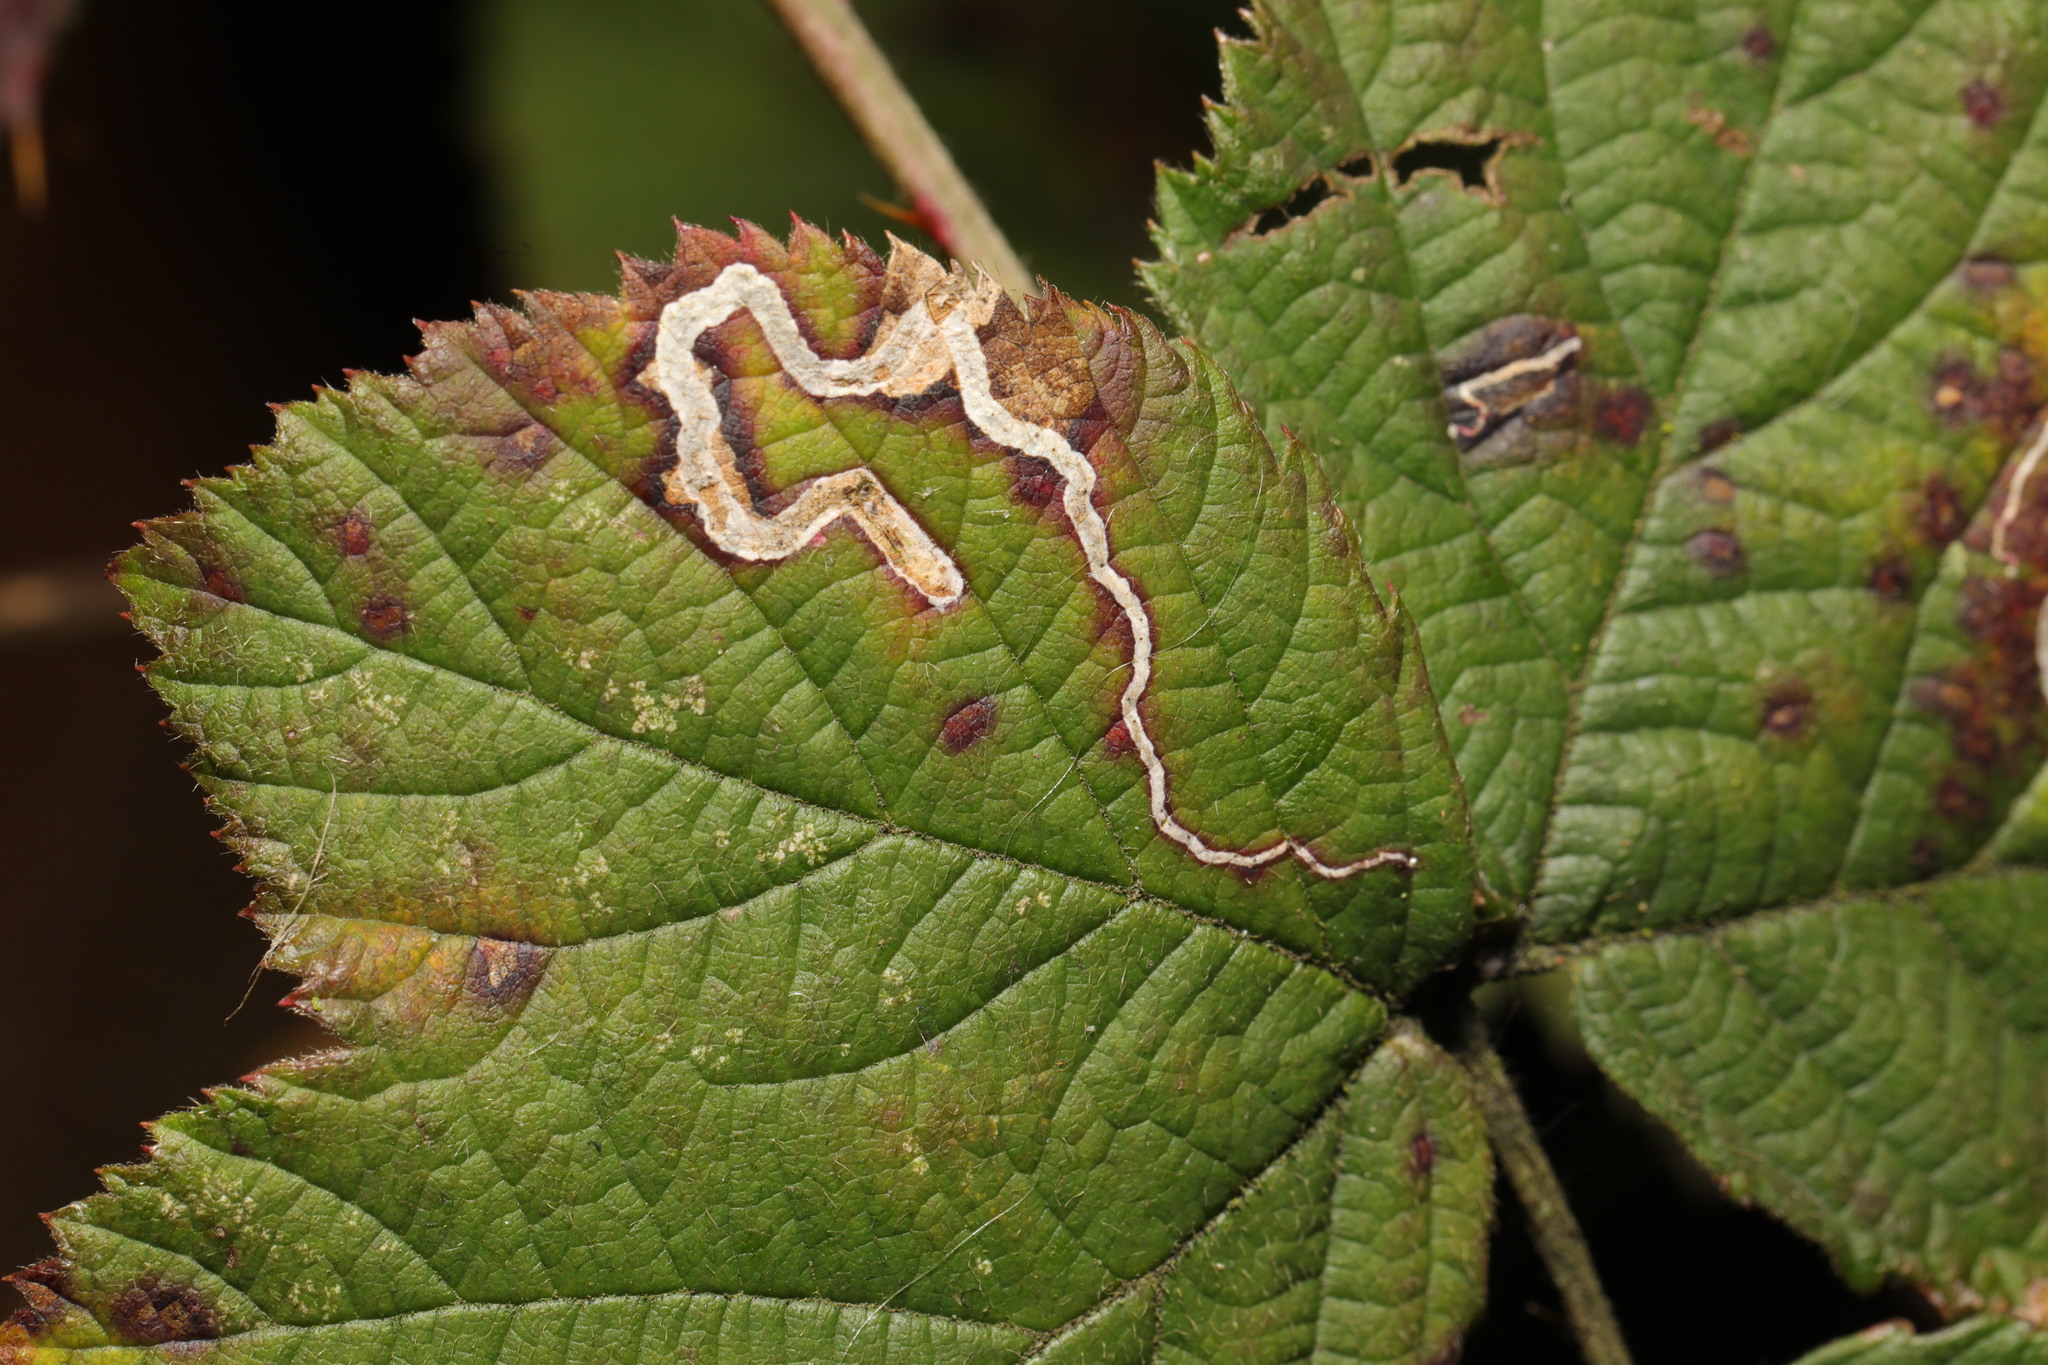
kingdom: Animalia
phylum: Arthropoda
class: Insecta
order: Lepidoptera
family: Nepticulidae
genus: Stigmella
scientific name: Stigmella aurella
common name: Golden pigmy
